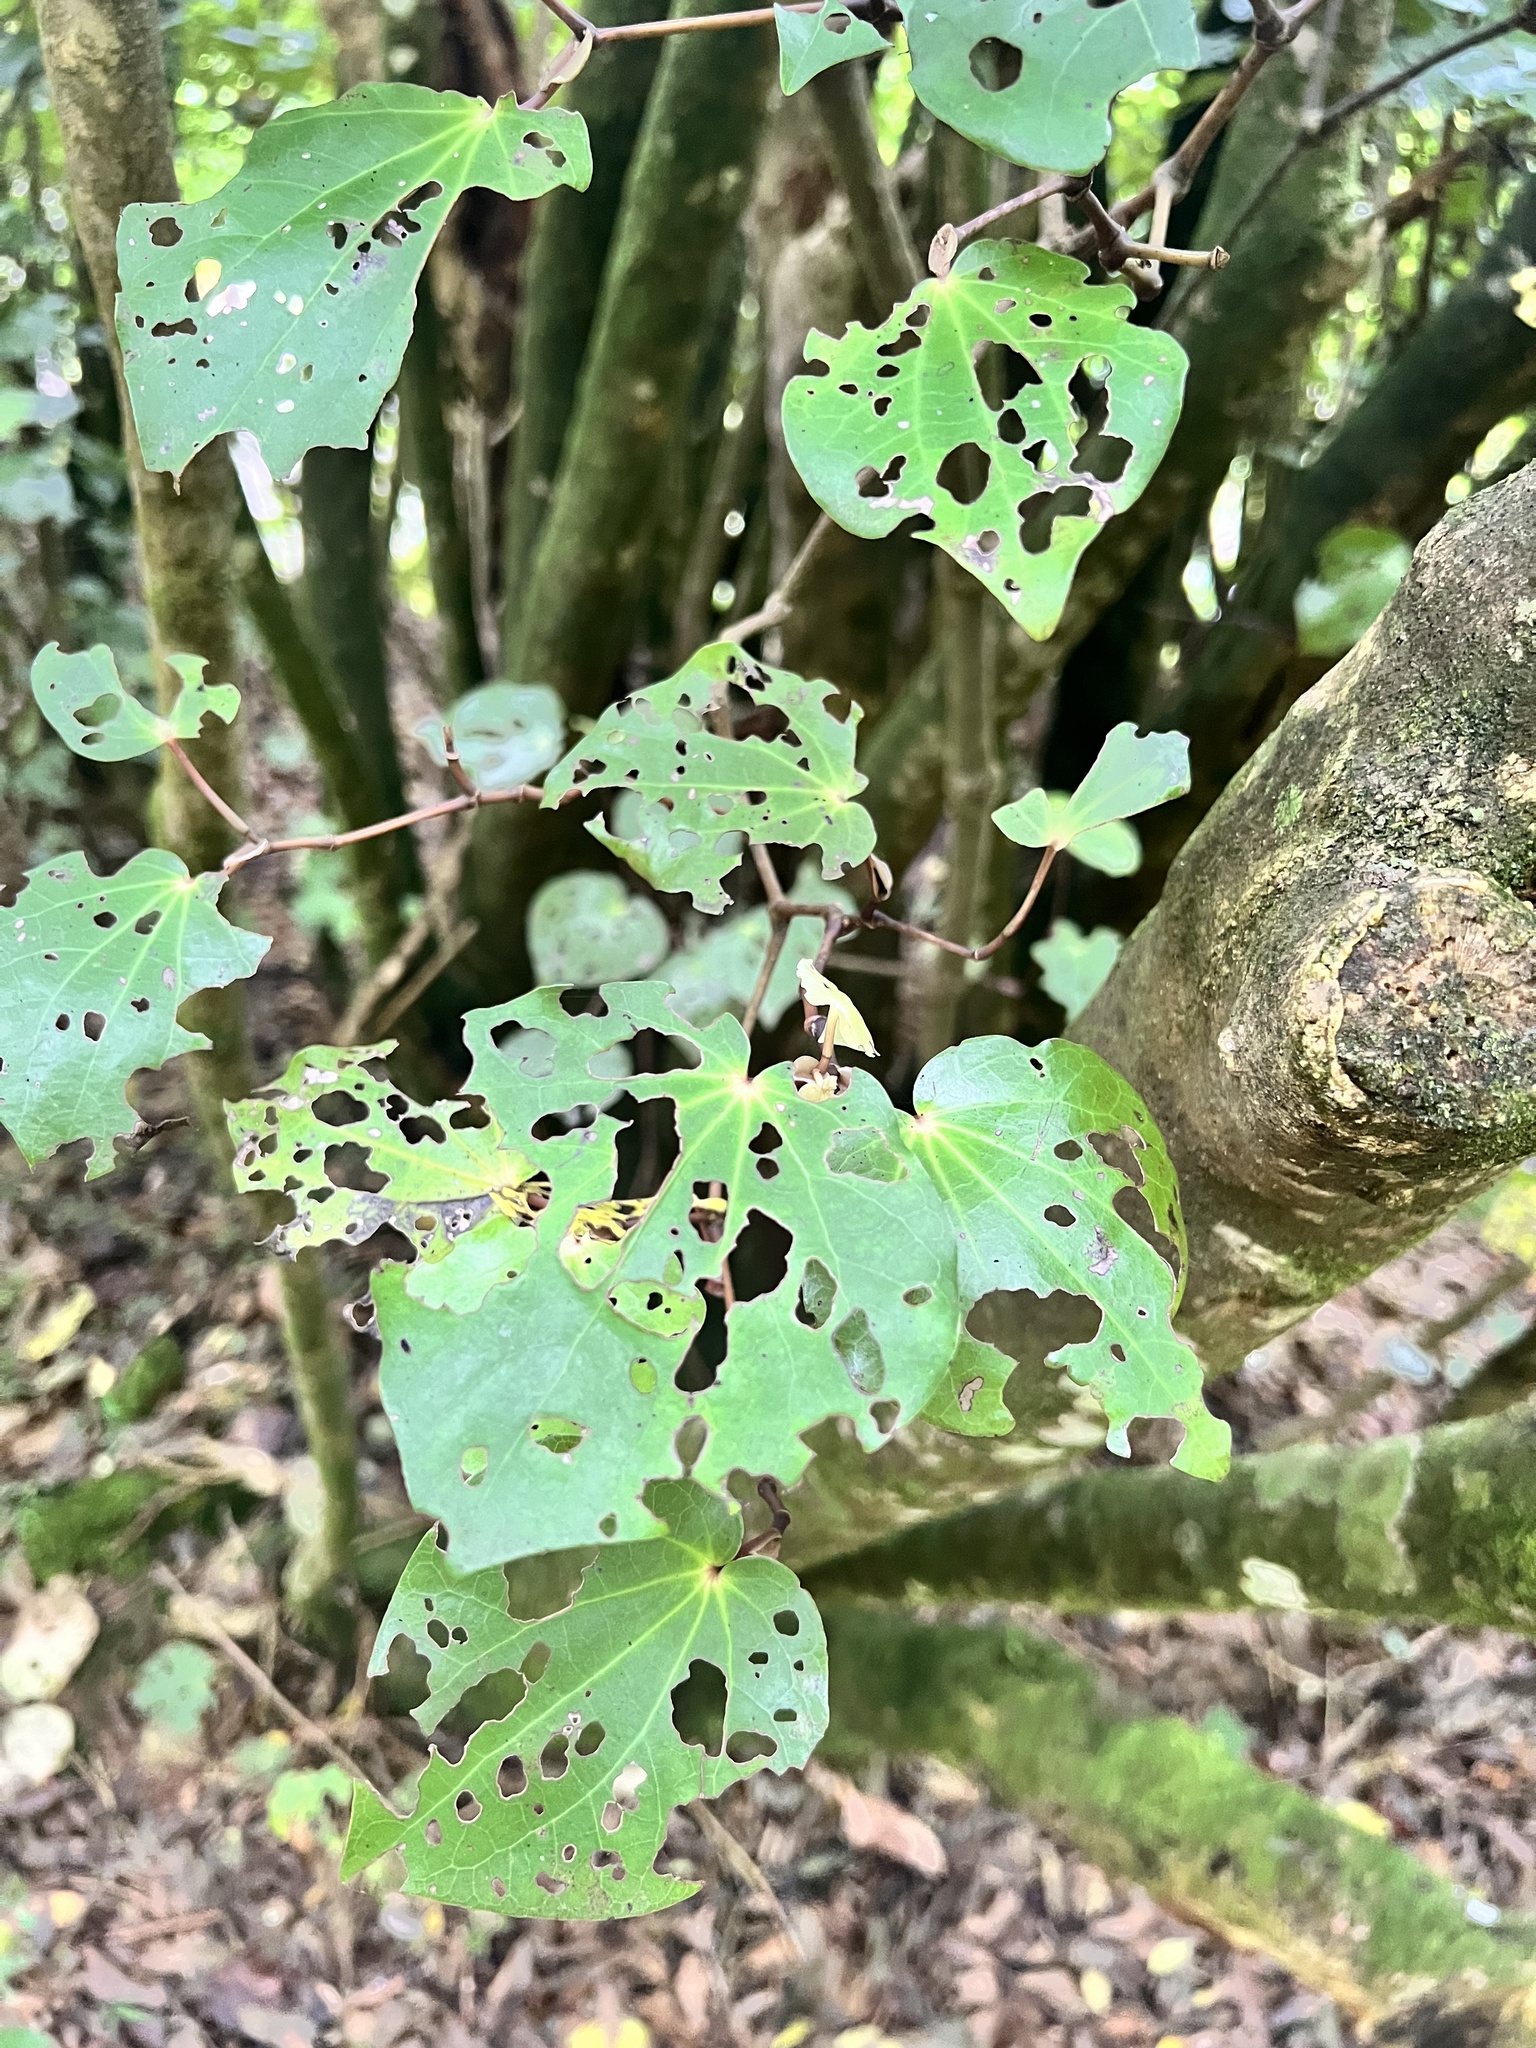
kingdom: Plantae
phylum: Tracheophyta
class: Magnoliopsida
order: Piperales
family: Piperaceae
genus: Macropiper
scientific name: Macropiper excelsum
